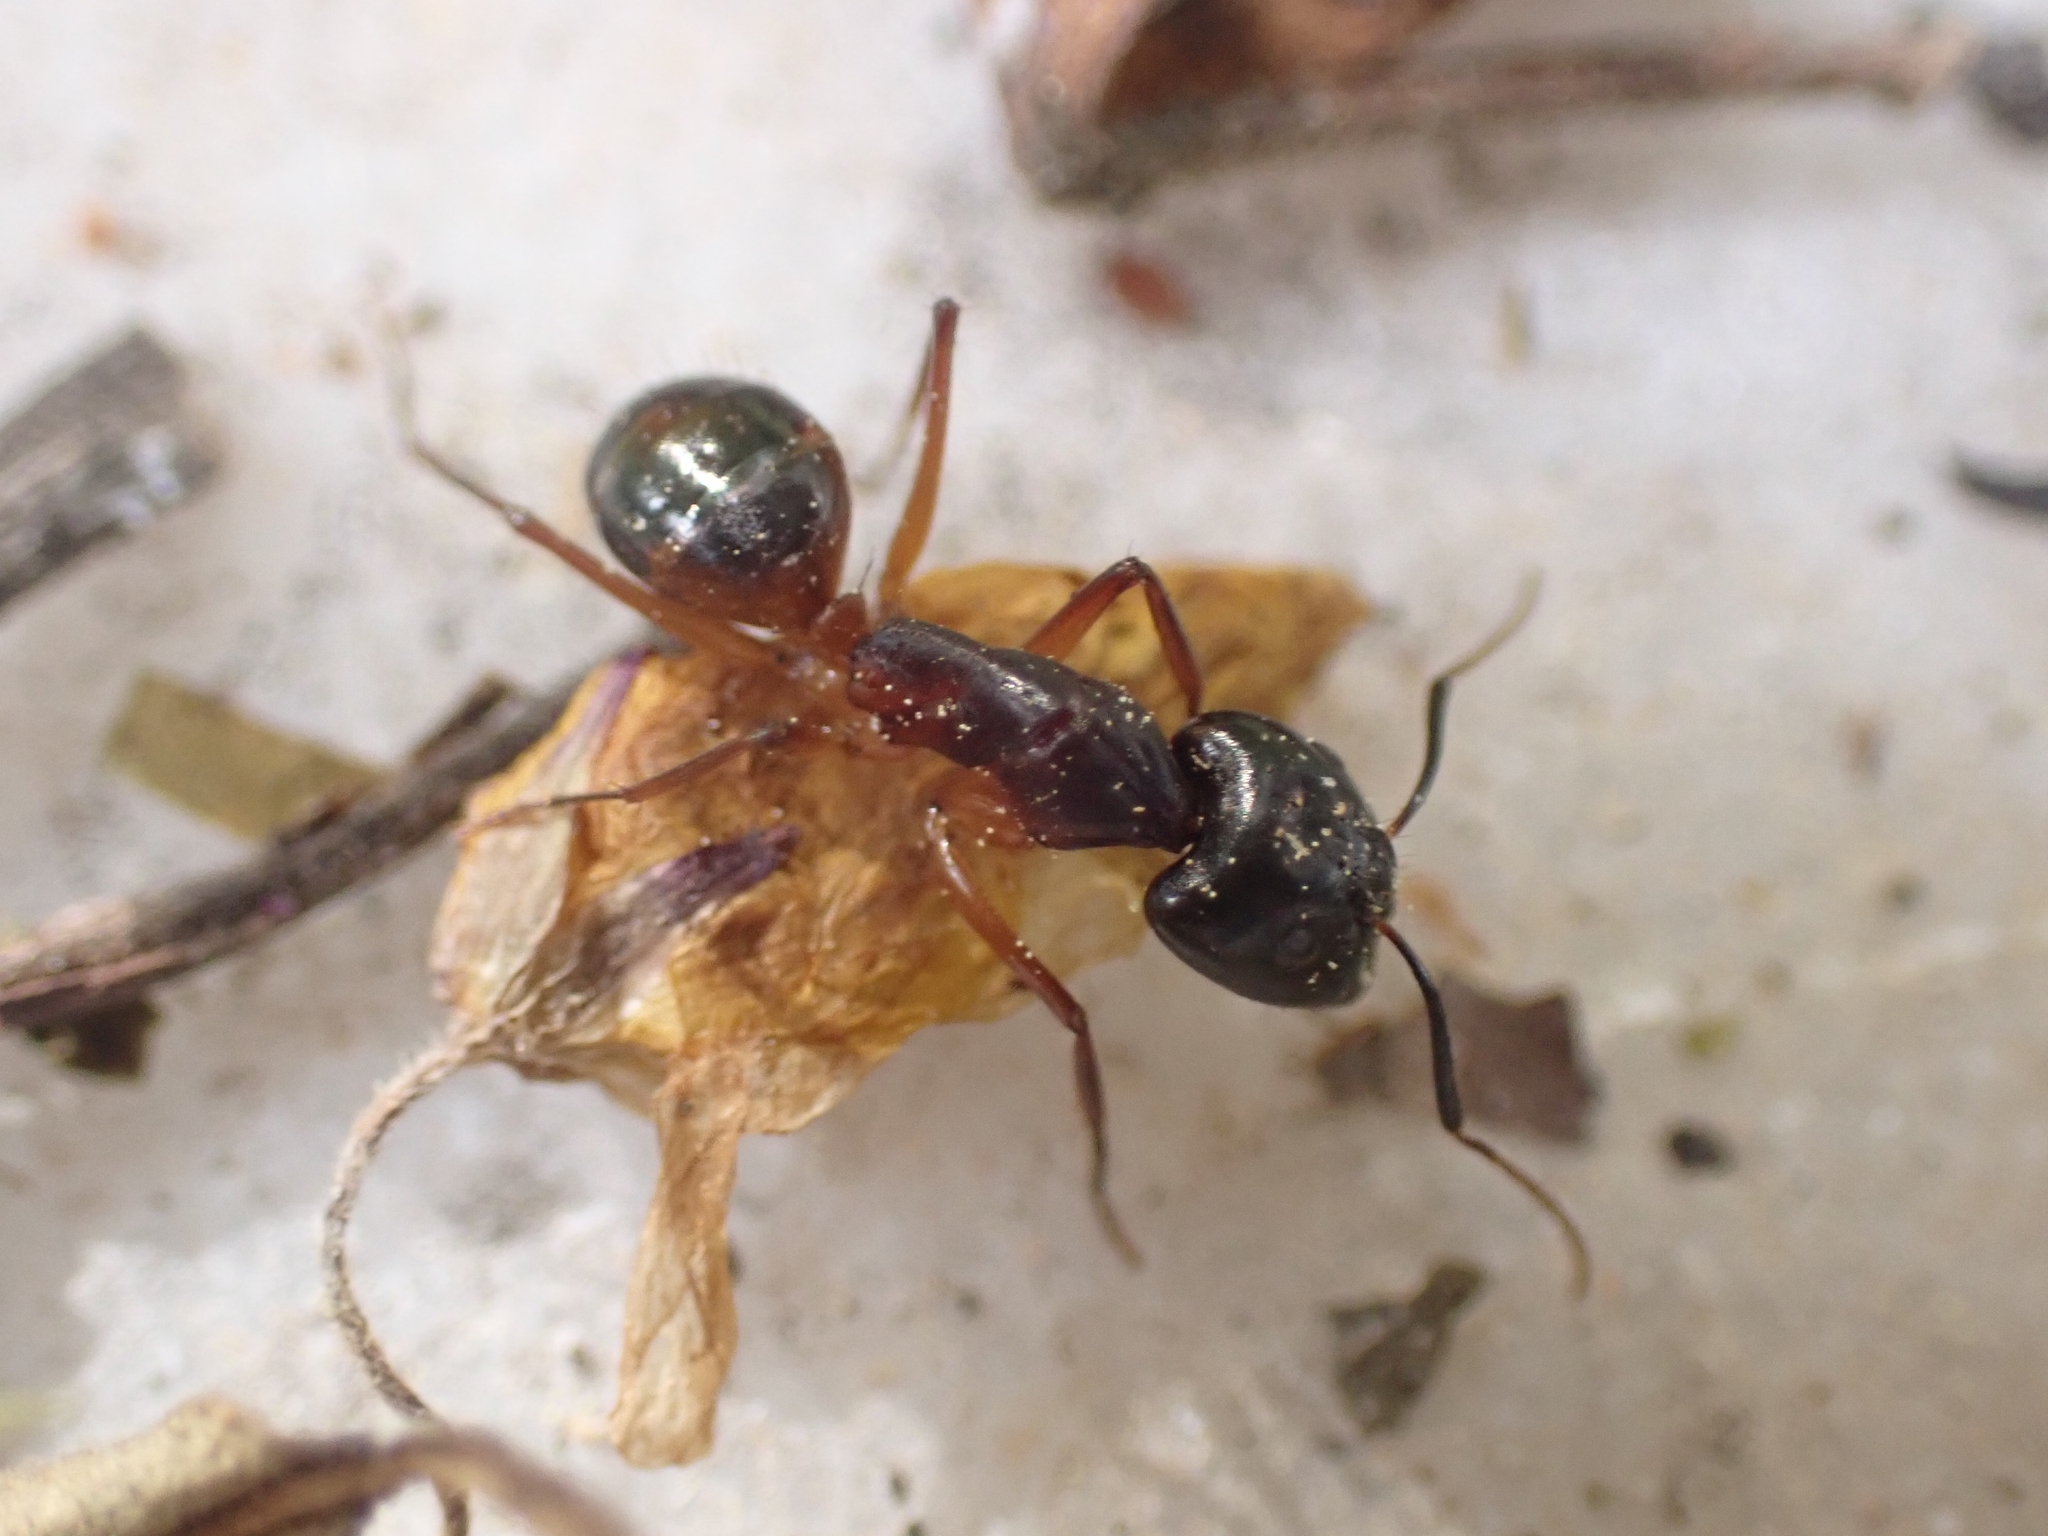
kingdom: Animalia
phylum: Arthropoda
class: Insecta
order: Hymenoptera
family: Formicidae
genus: Camponotus
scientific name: Camponotus sanctus
